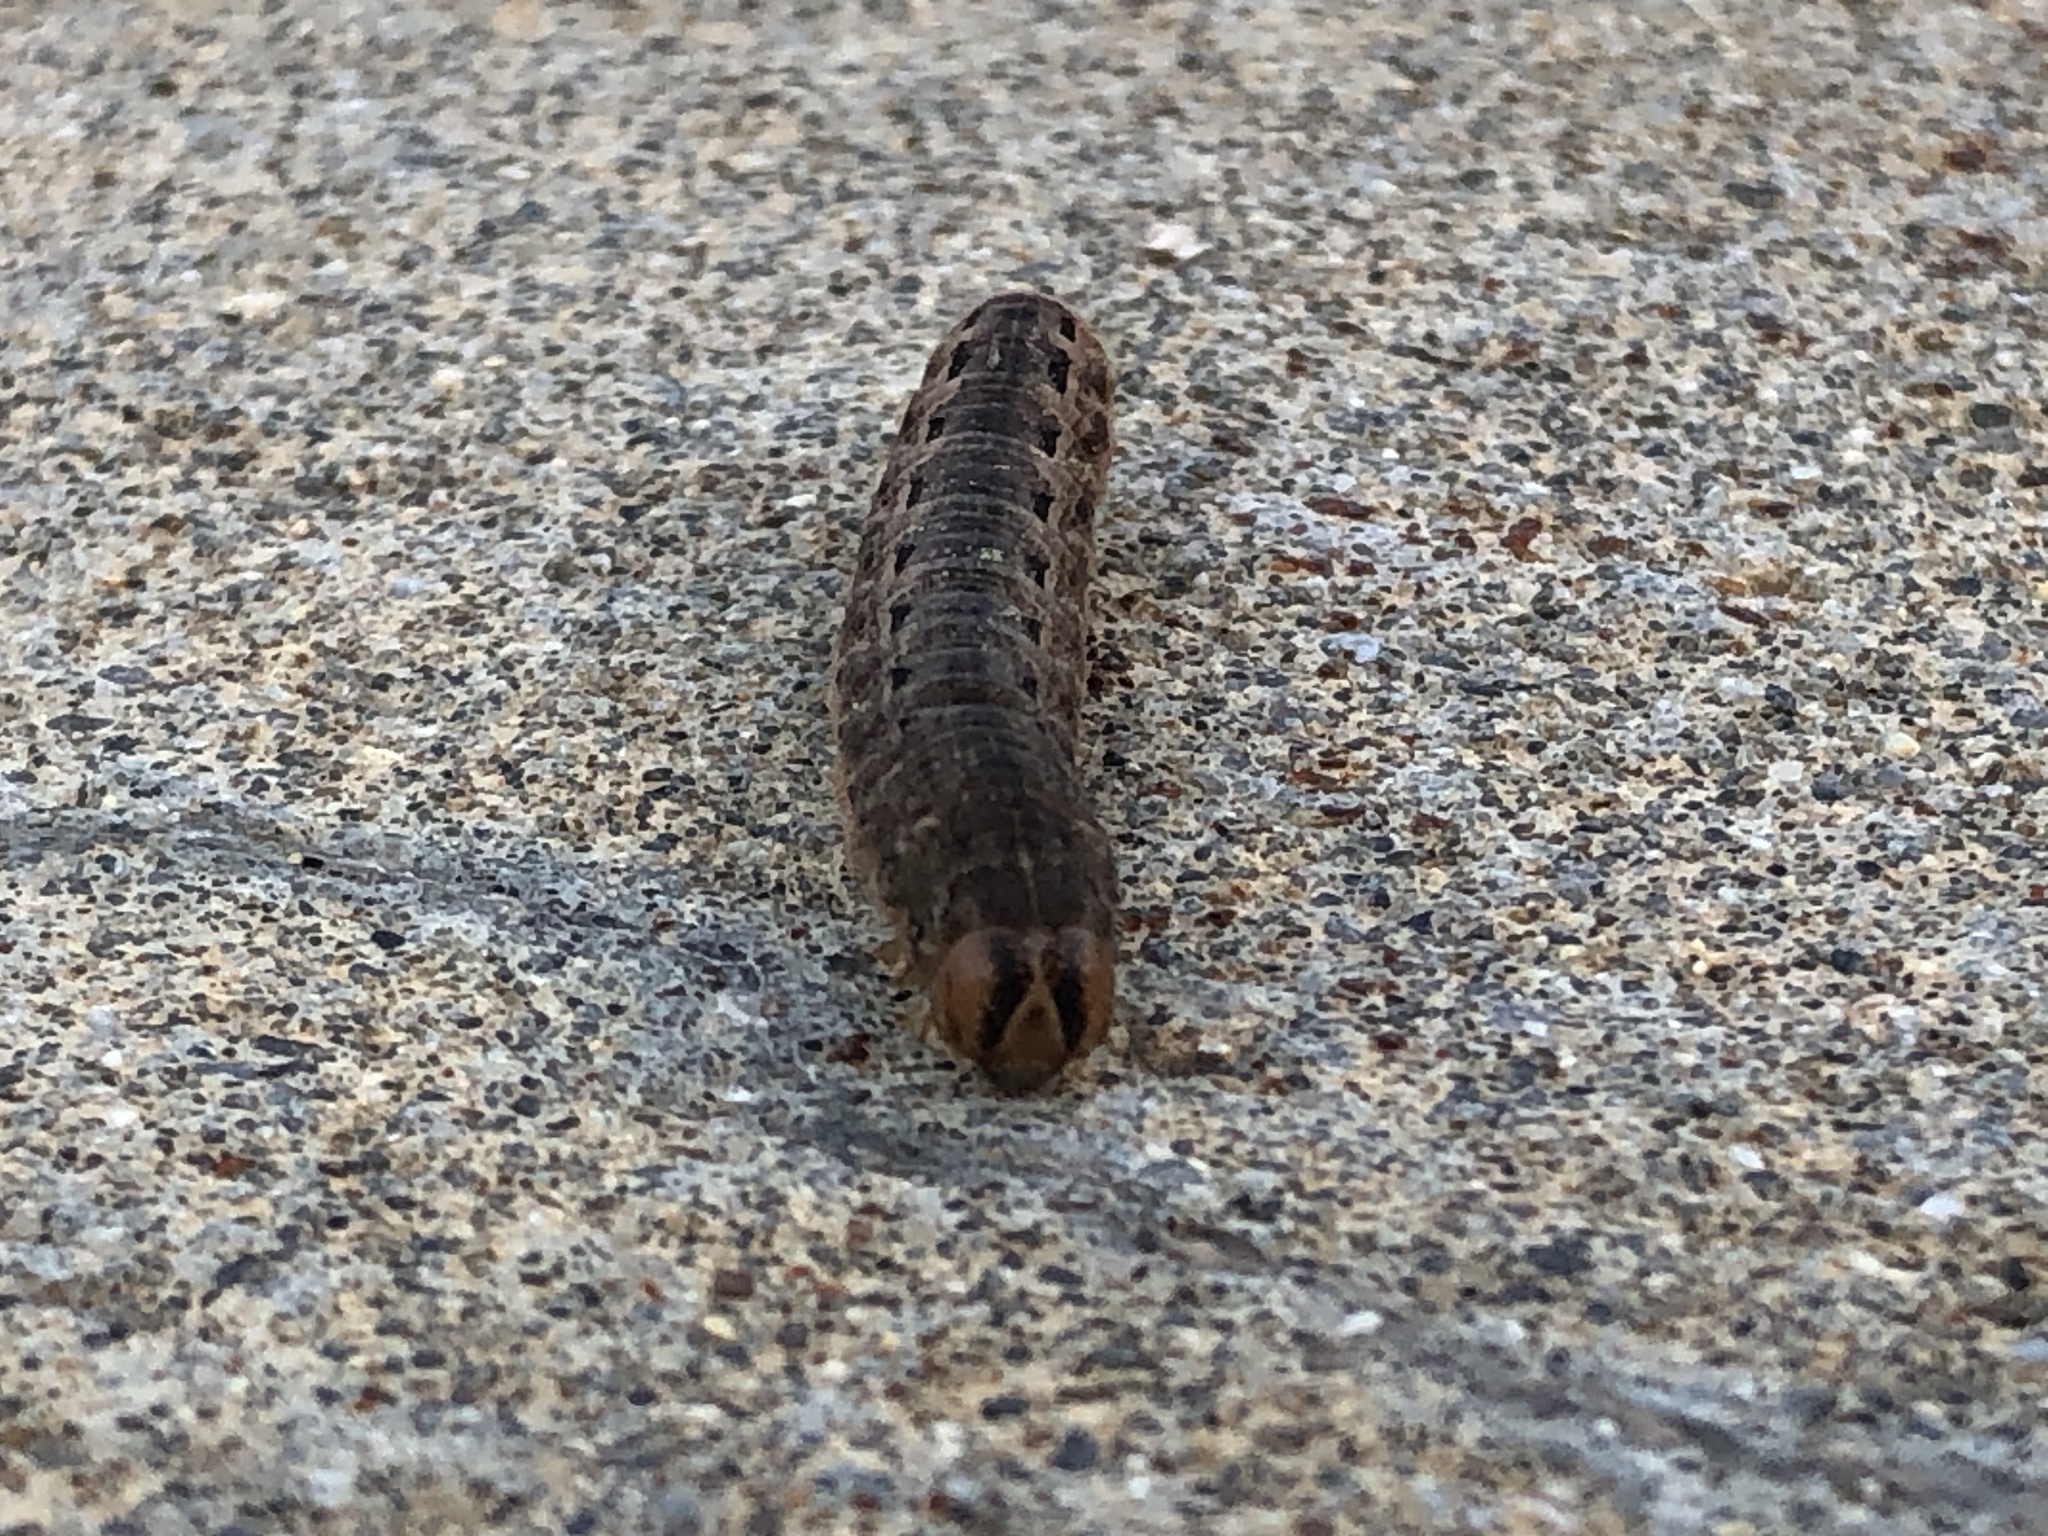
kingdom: Animalia
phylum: Arthropoda
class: Insecta
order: Lepidoptera
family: Noctuidae
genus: Noctua
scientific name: Noctua pronuba
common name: Large yellow underwing
